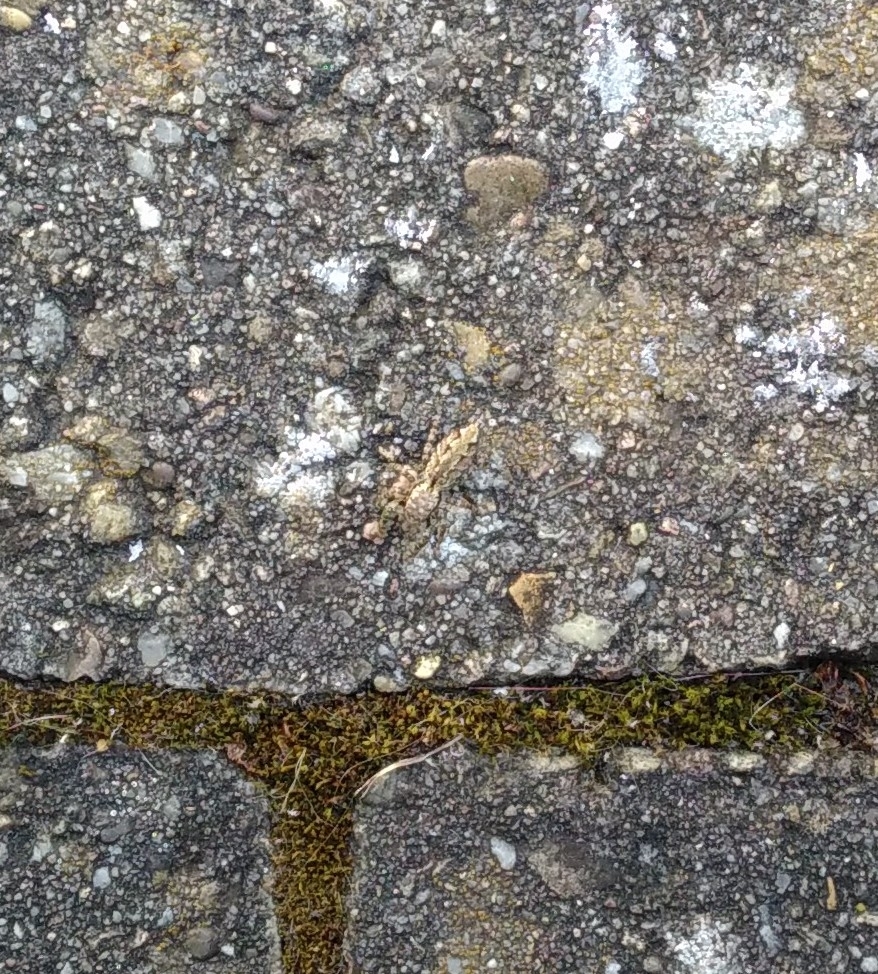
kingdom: Animalia
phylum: Arthropoda
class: Arachnida
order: Araneae
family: Salticidae
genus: Marpissa
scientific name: Marpissa muscosa
